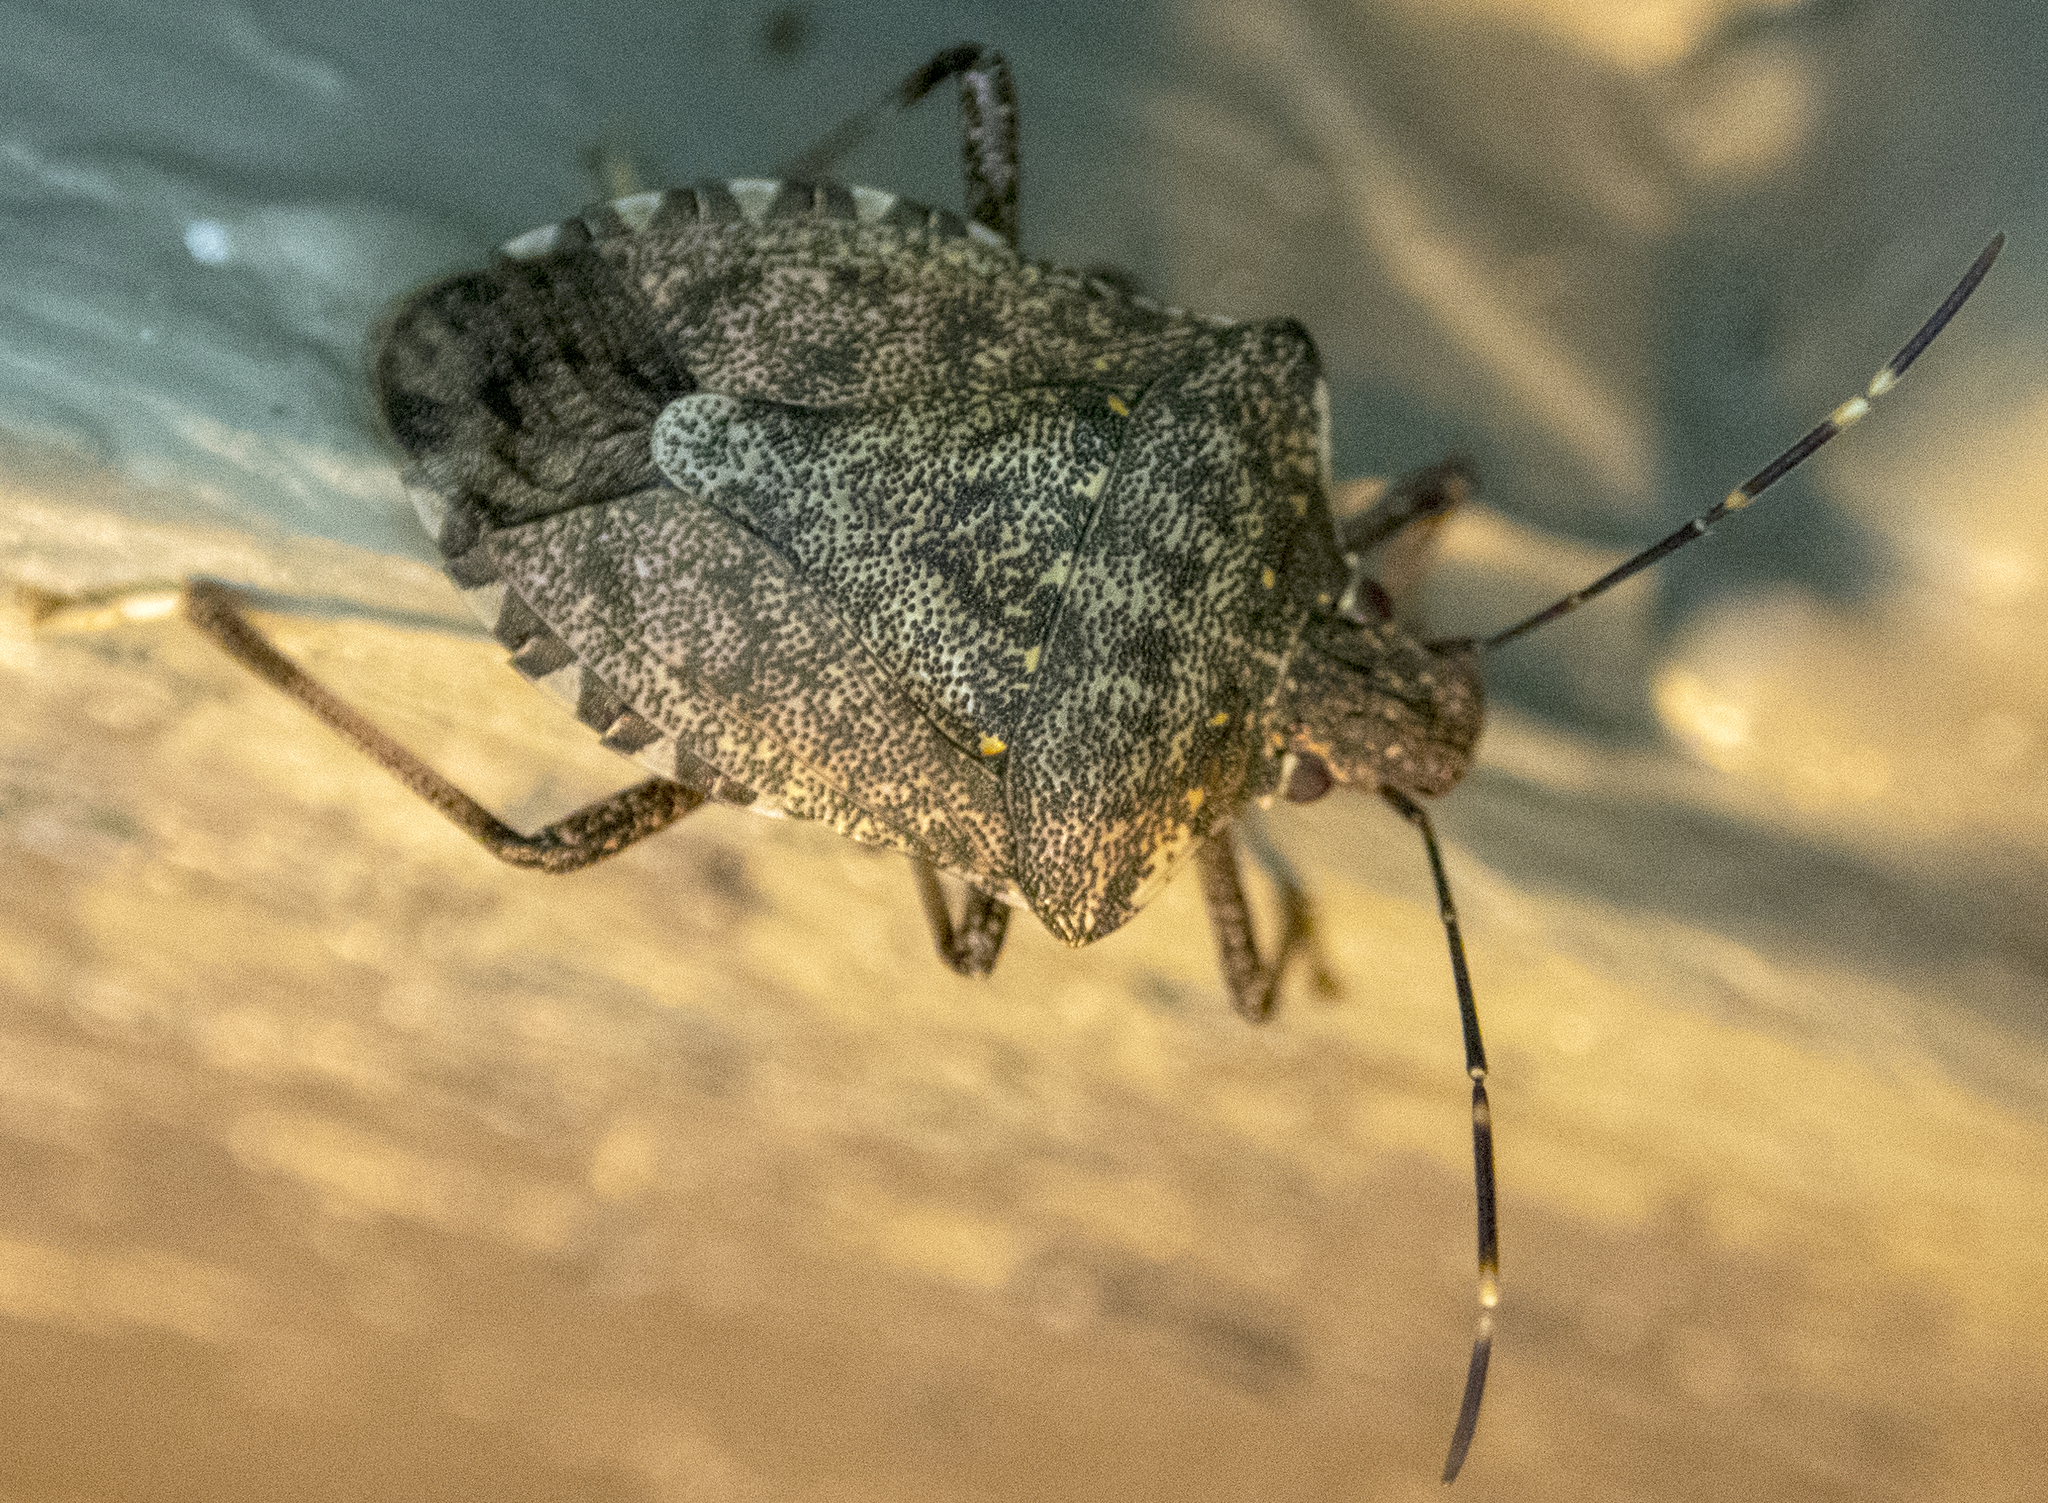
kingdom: Animalia
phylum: Arthropoda
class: Insecta
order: Hemiptera
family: Pentatomidae
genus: Halyomorpha
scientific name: Halyomorpha halys
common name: Brown marmorated stink bug
